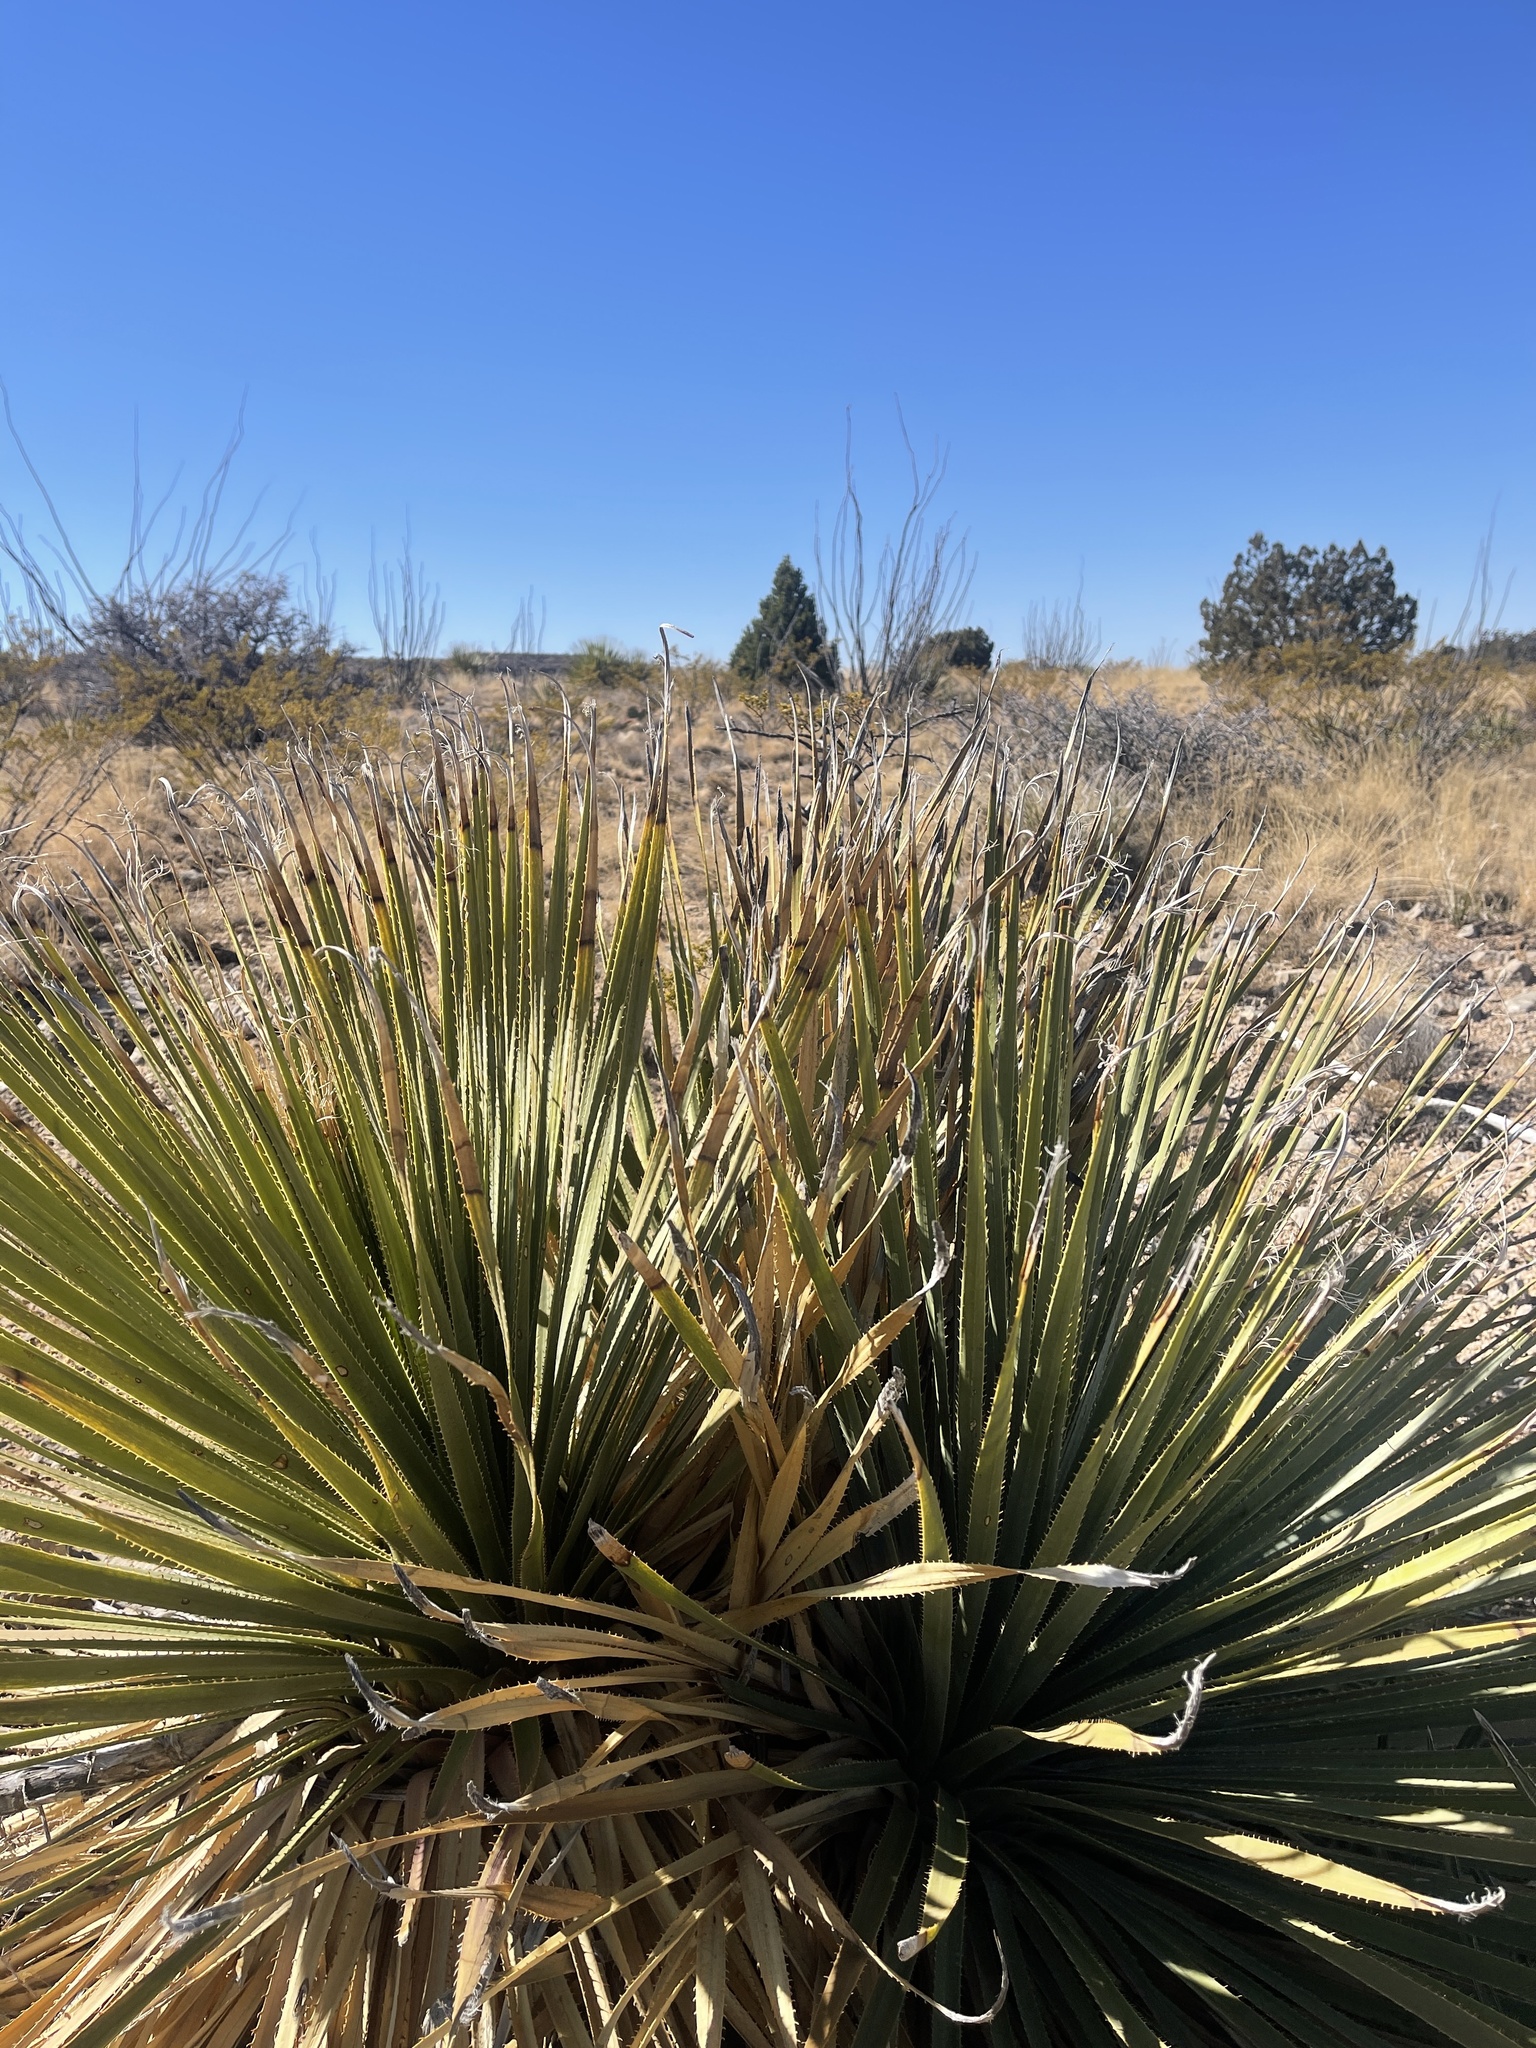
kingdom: Plantae
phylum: Tracheophyta
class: Liliopsida
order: Asparagales
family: Asparagaceae
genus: Dasylirion
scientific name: Dasylirion wheeleri
